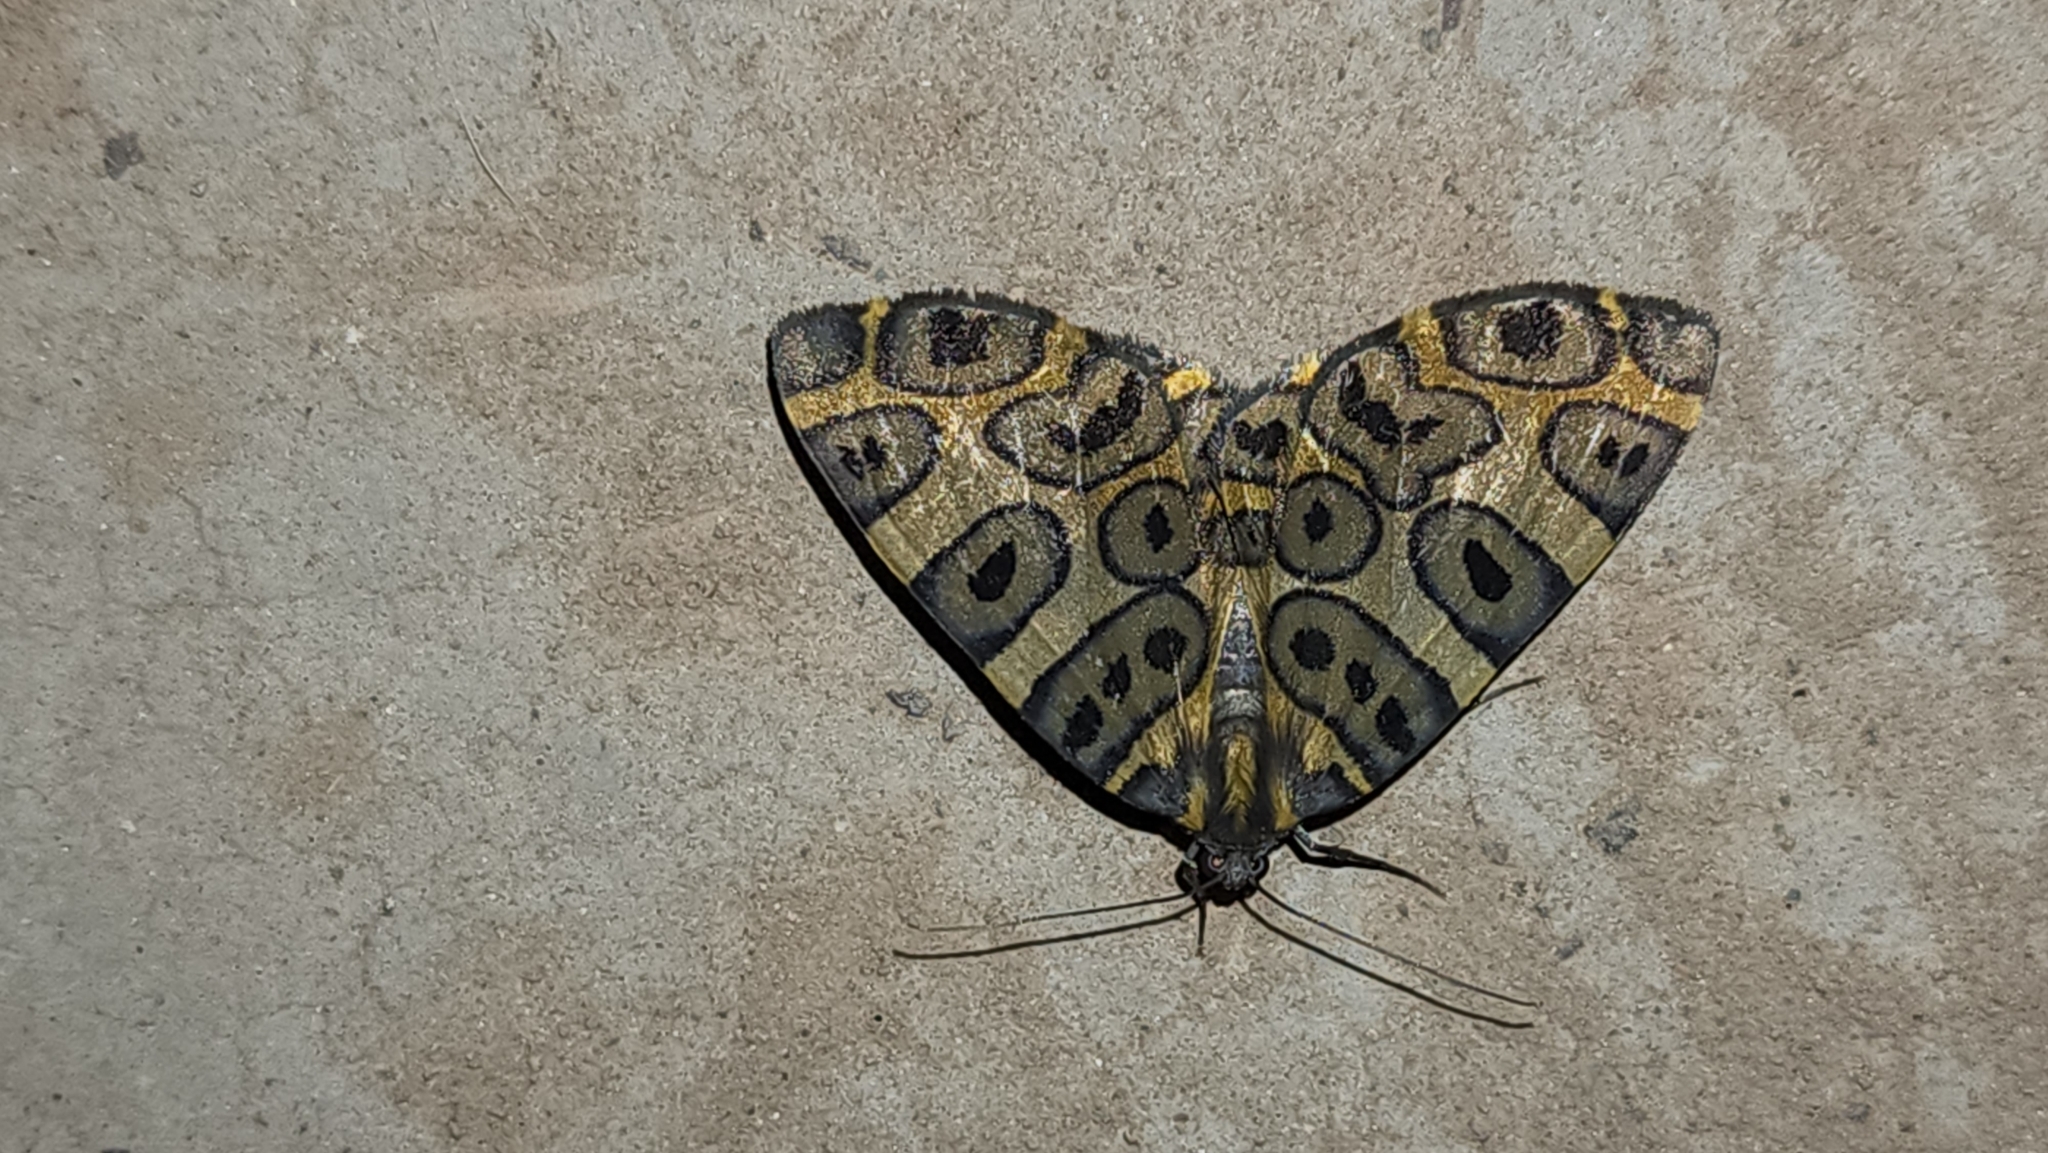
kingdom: Animalia
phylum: Arthropoda
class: Insecta
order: Lepidoptera
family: Geometridae
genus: Pantherodes
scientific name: Pantherodes pardalaria
